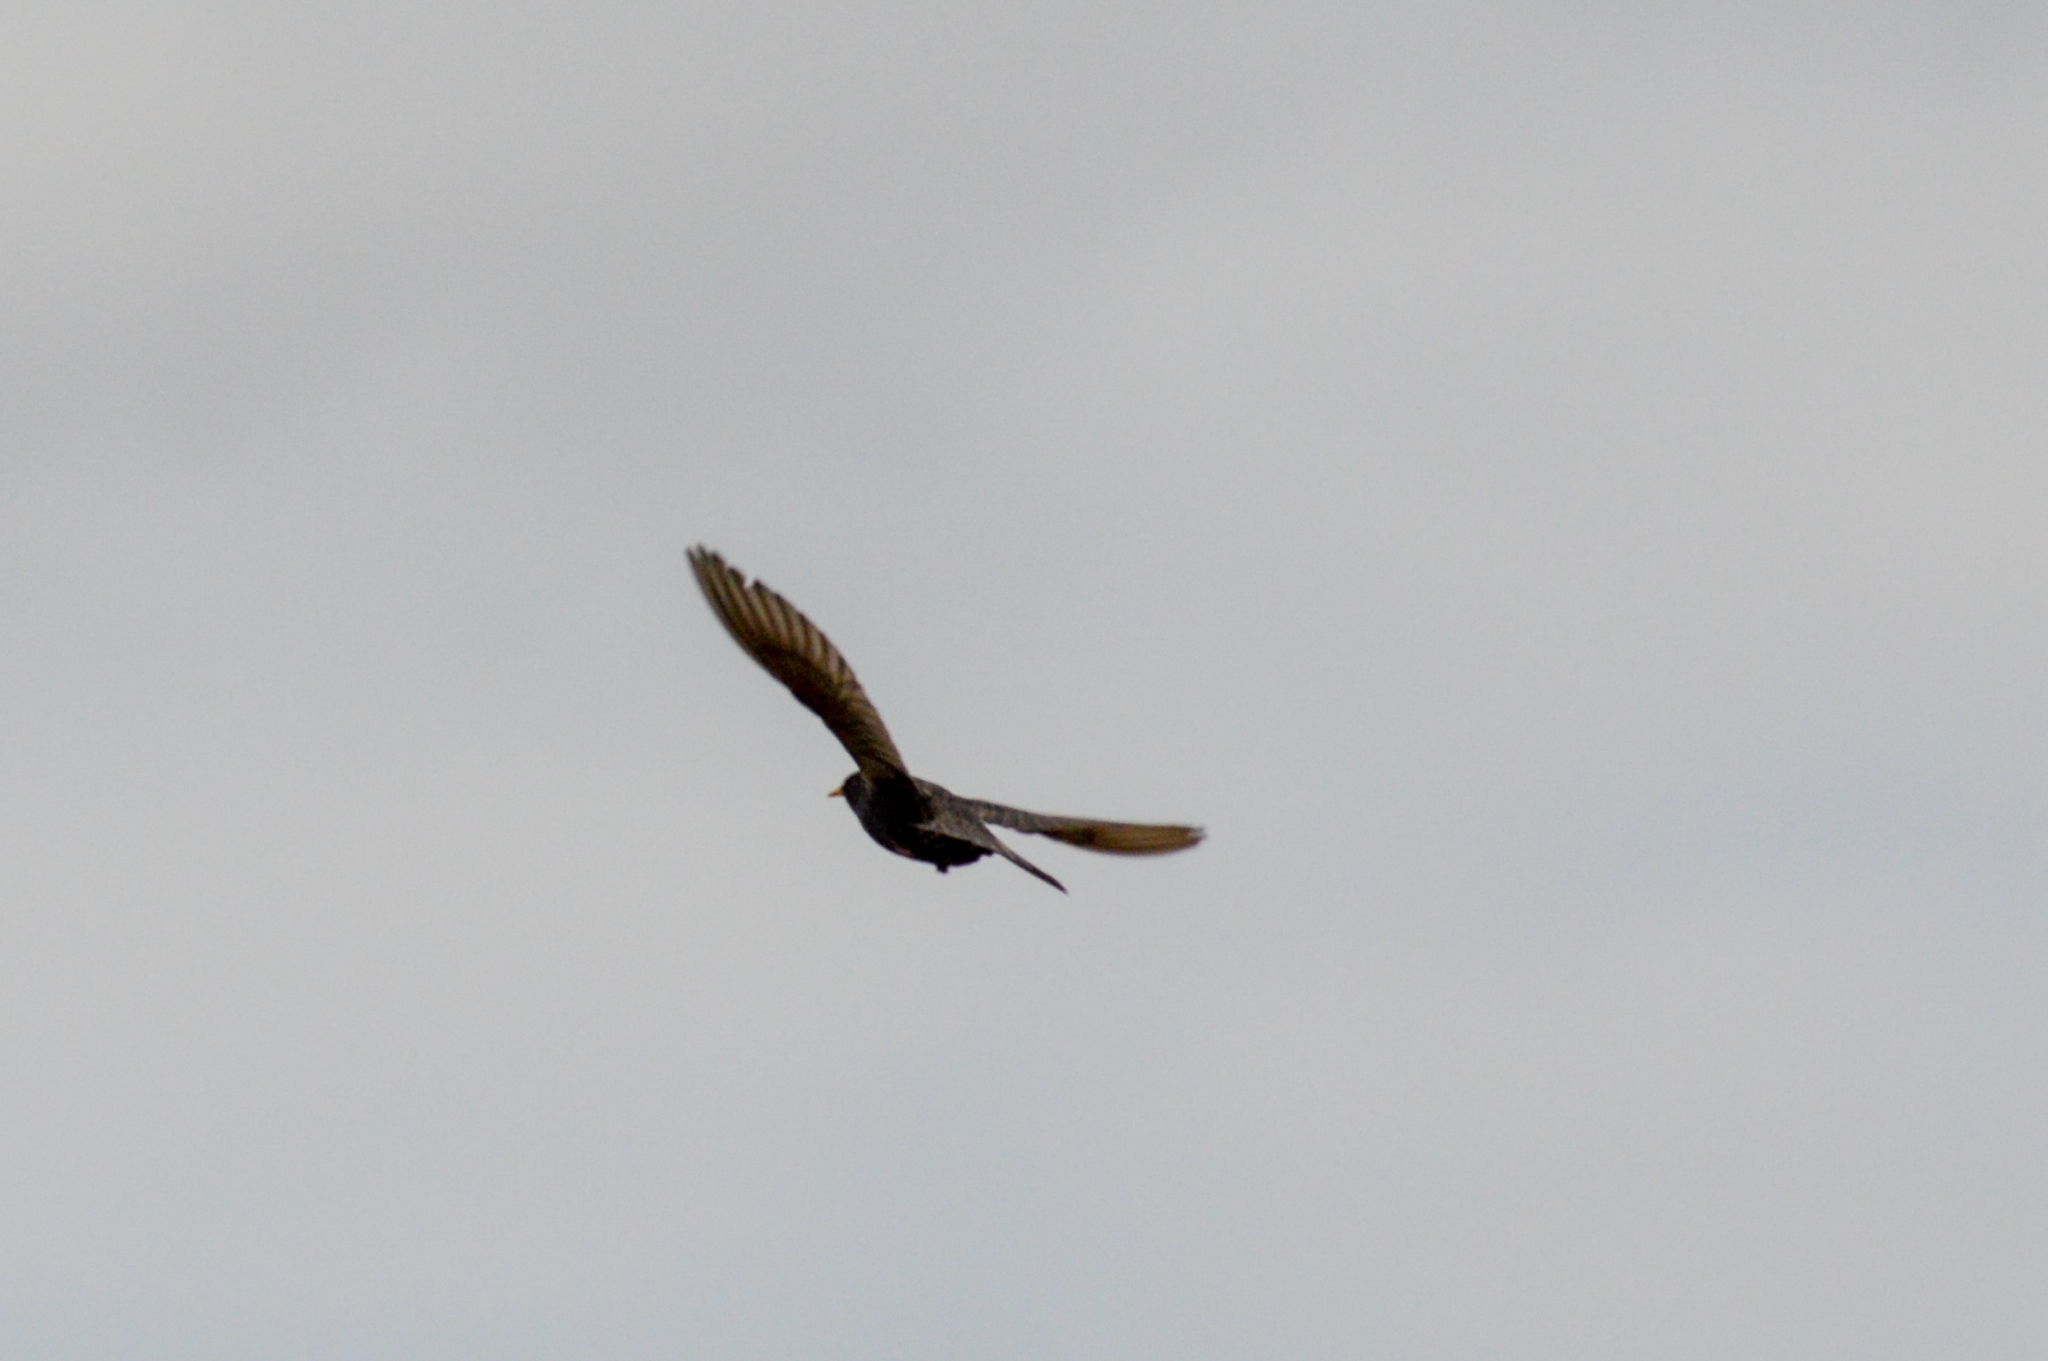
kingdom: Animalia
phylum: Chordata
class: Aves
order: Passeriformes
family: Sturnidae
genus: Sturnus
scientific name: Sturnus vulgaris
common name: Common starling
